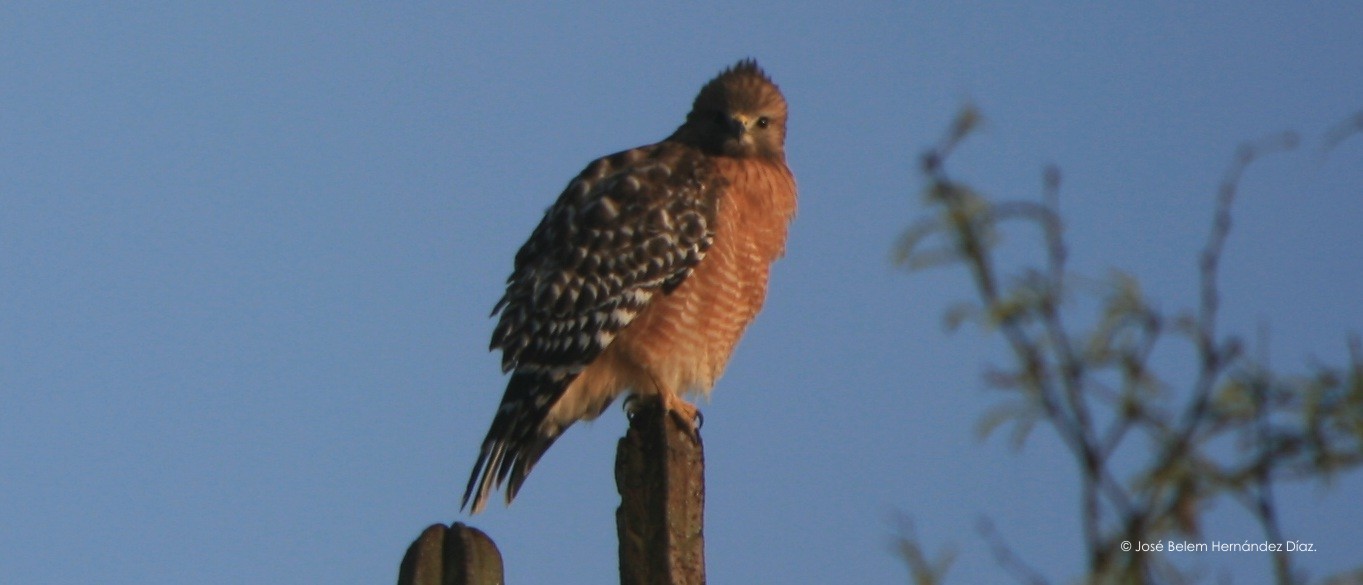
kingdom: Animalia
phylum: Chordata
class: Aves
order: Accipitriformes
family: Accipitridae
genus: Buteo
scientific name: Buteo lineatus
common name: Red-shouldered hawk
